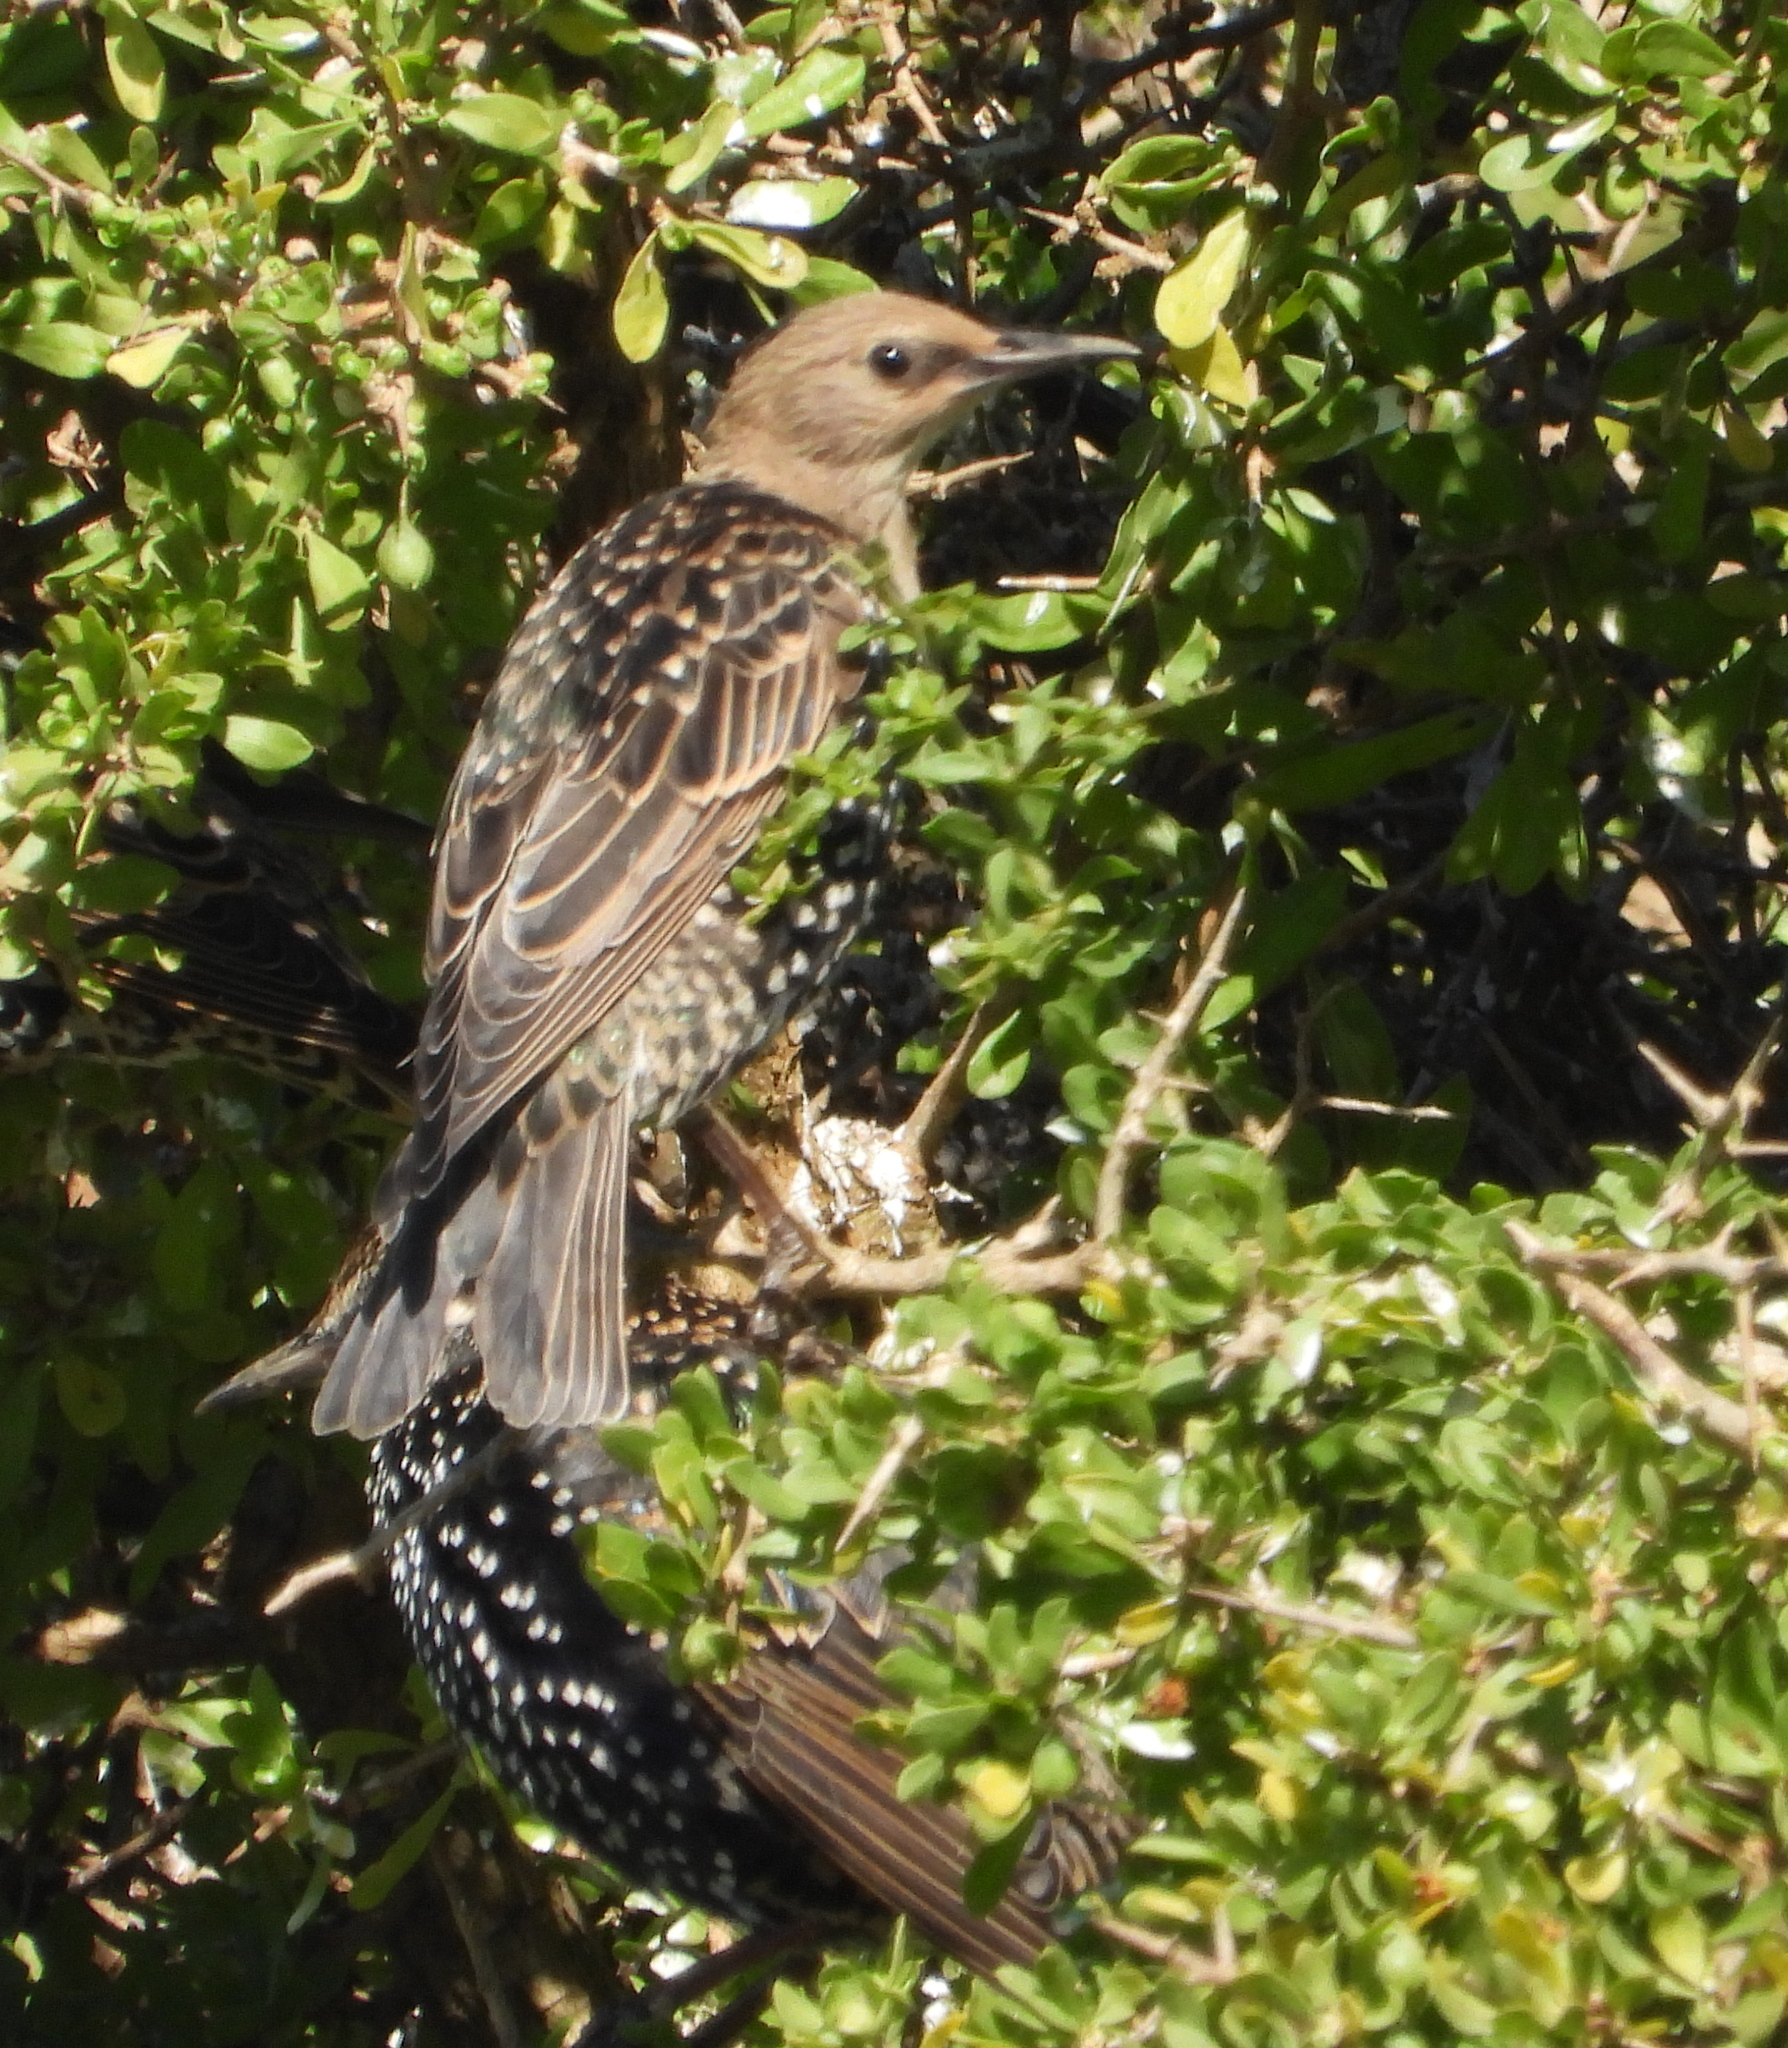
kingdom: Animalia
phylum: Chordata
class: Aves
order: Passeriformes
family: Sturnidae
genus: Sturnus
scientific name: Sturnus vulgaris
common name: Common starling
